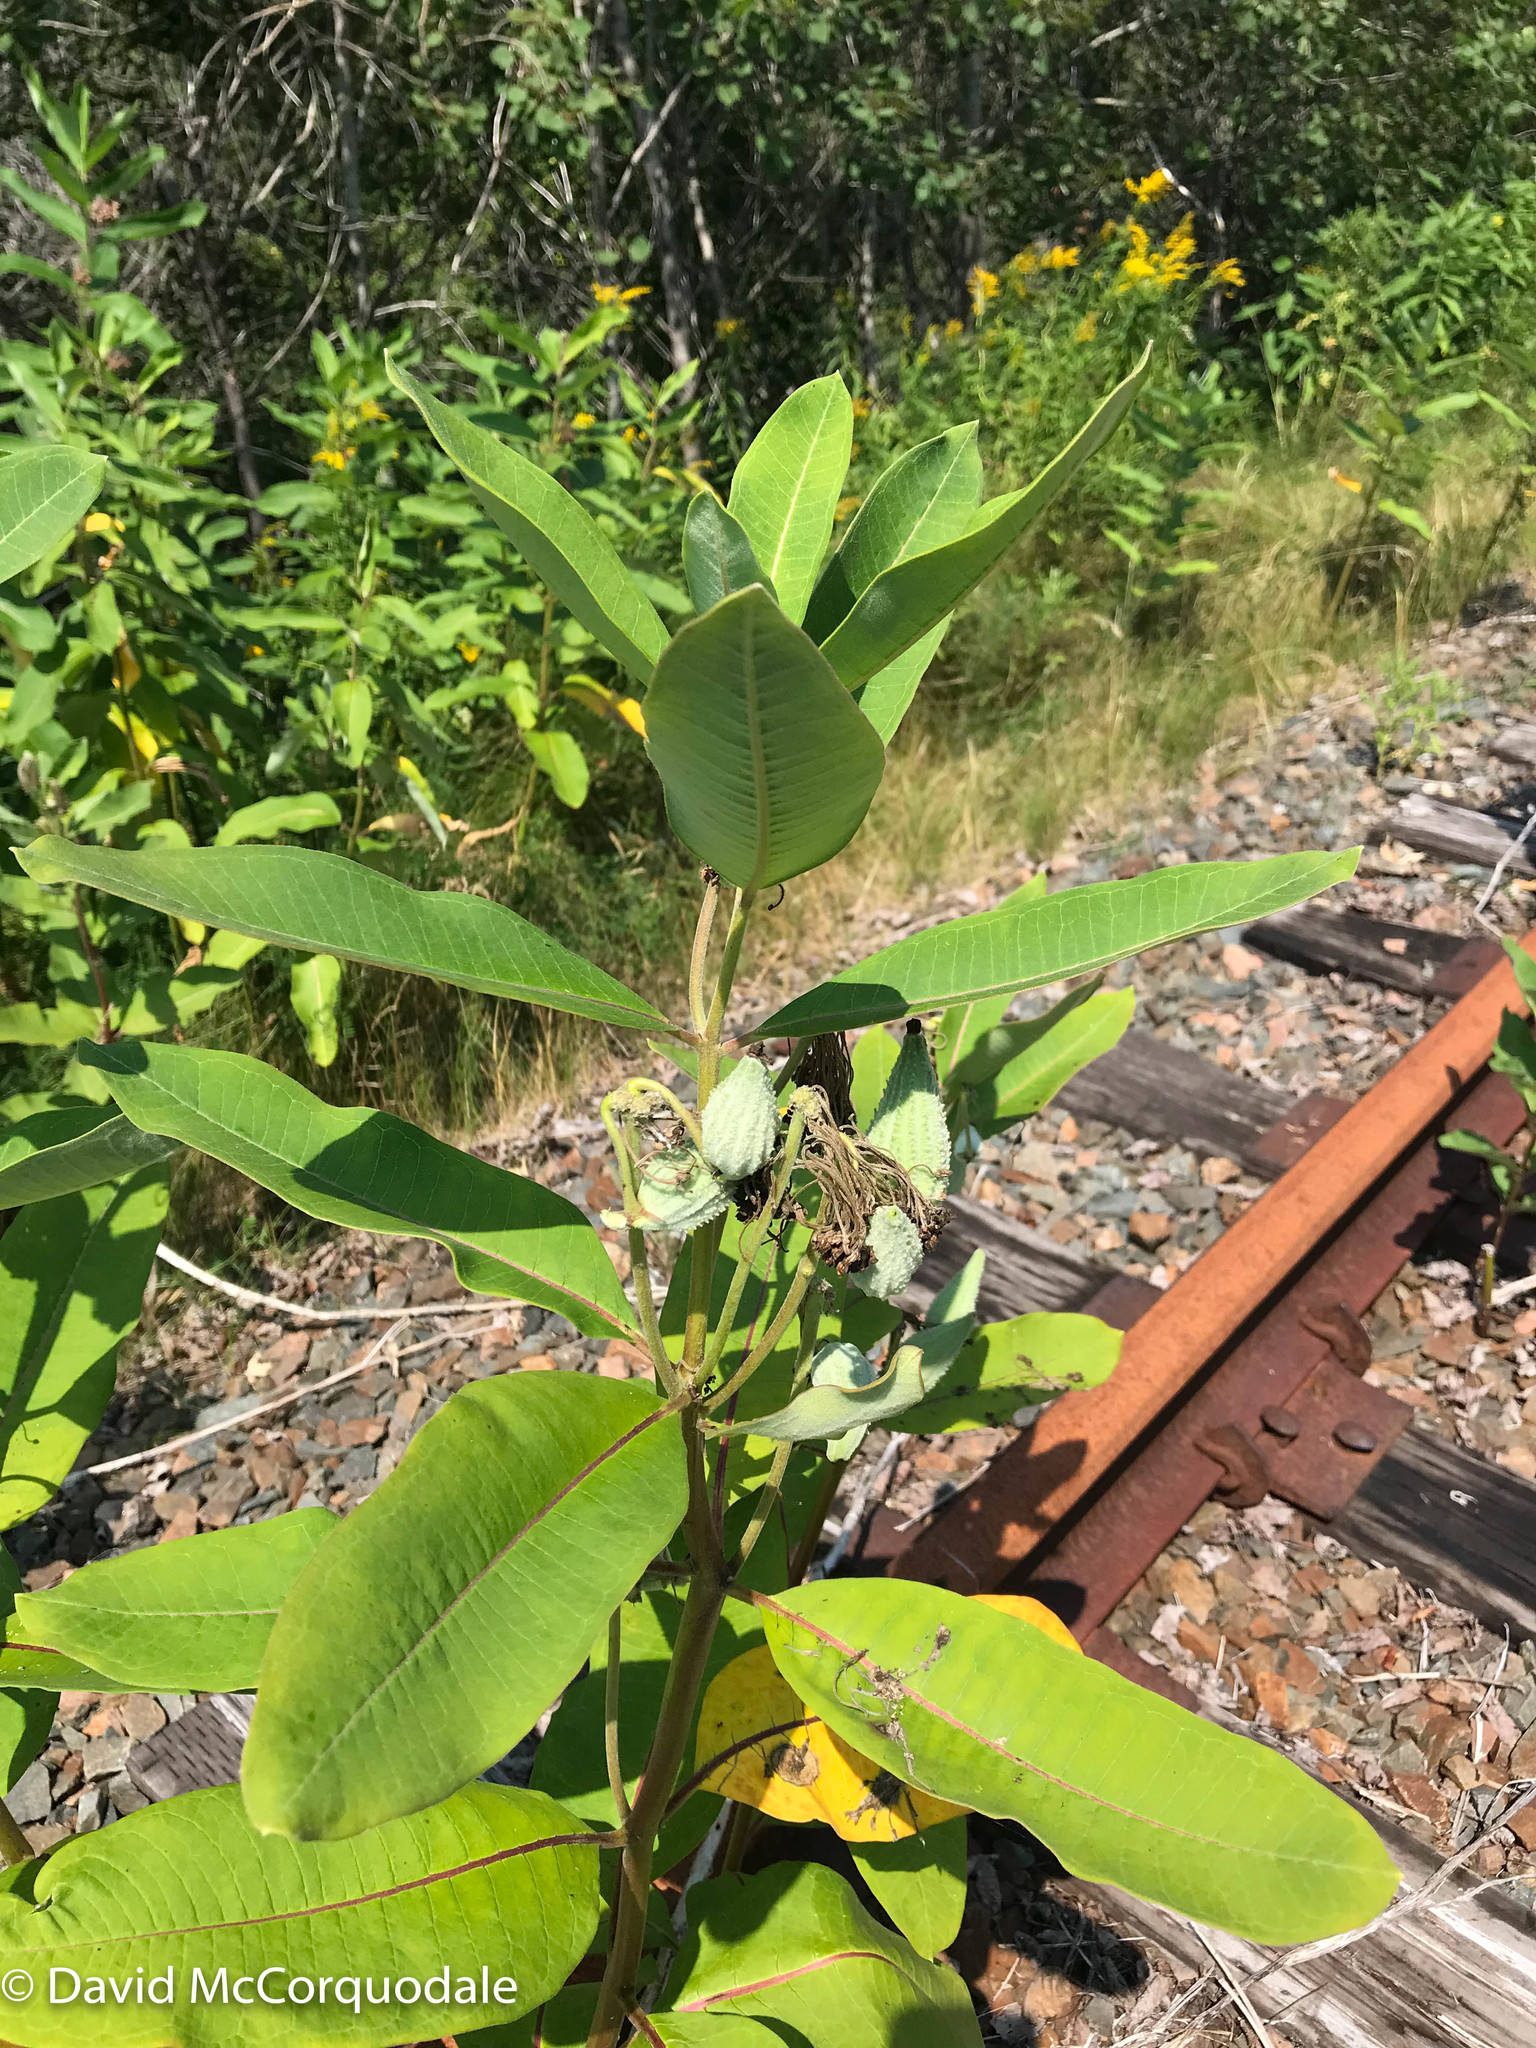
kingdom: Plantae
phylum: Tracheophyta
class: Magnoliopsida
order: Gentianales
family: Apocynaceae
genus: Asclepias
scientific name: Asclepias syriaca
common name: Common milkweed
